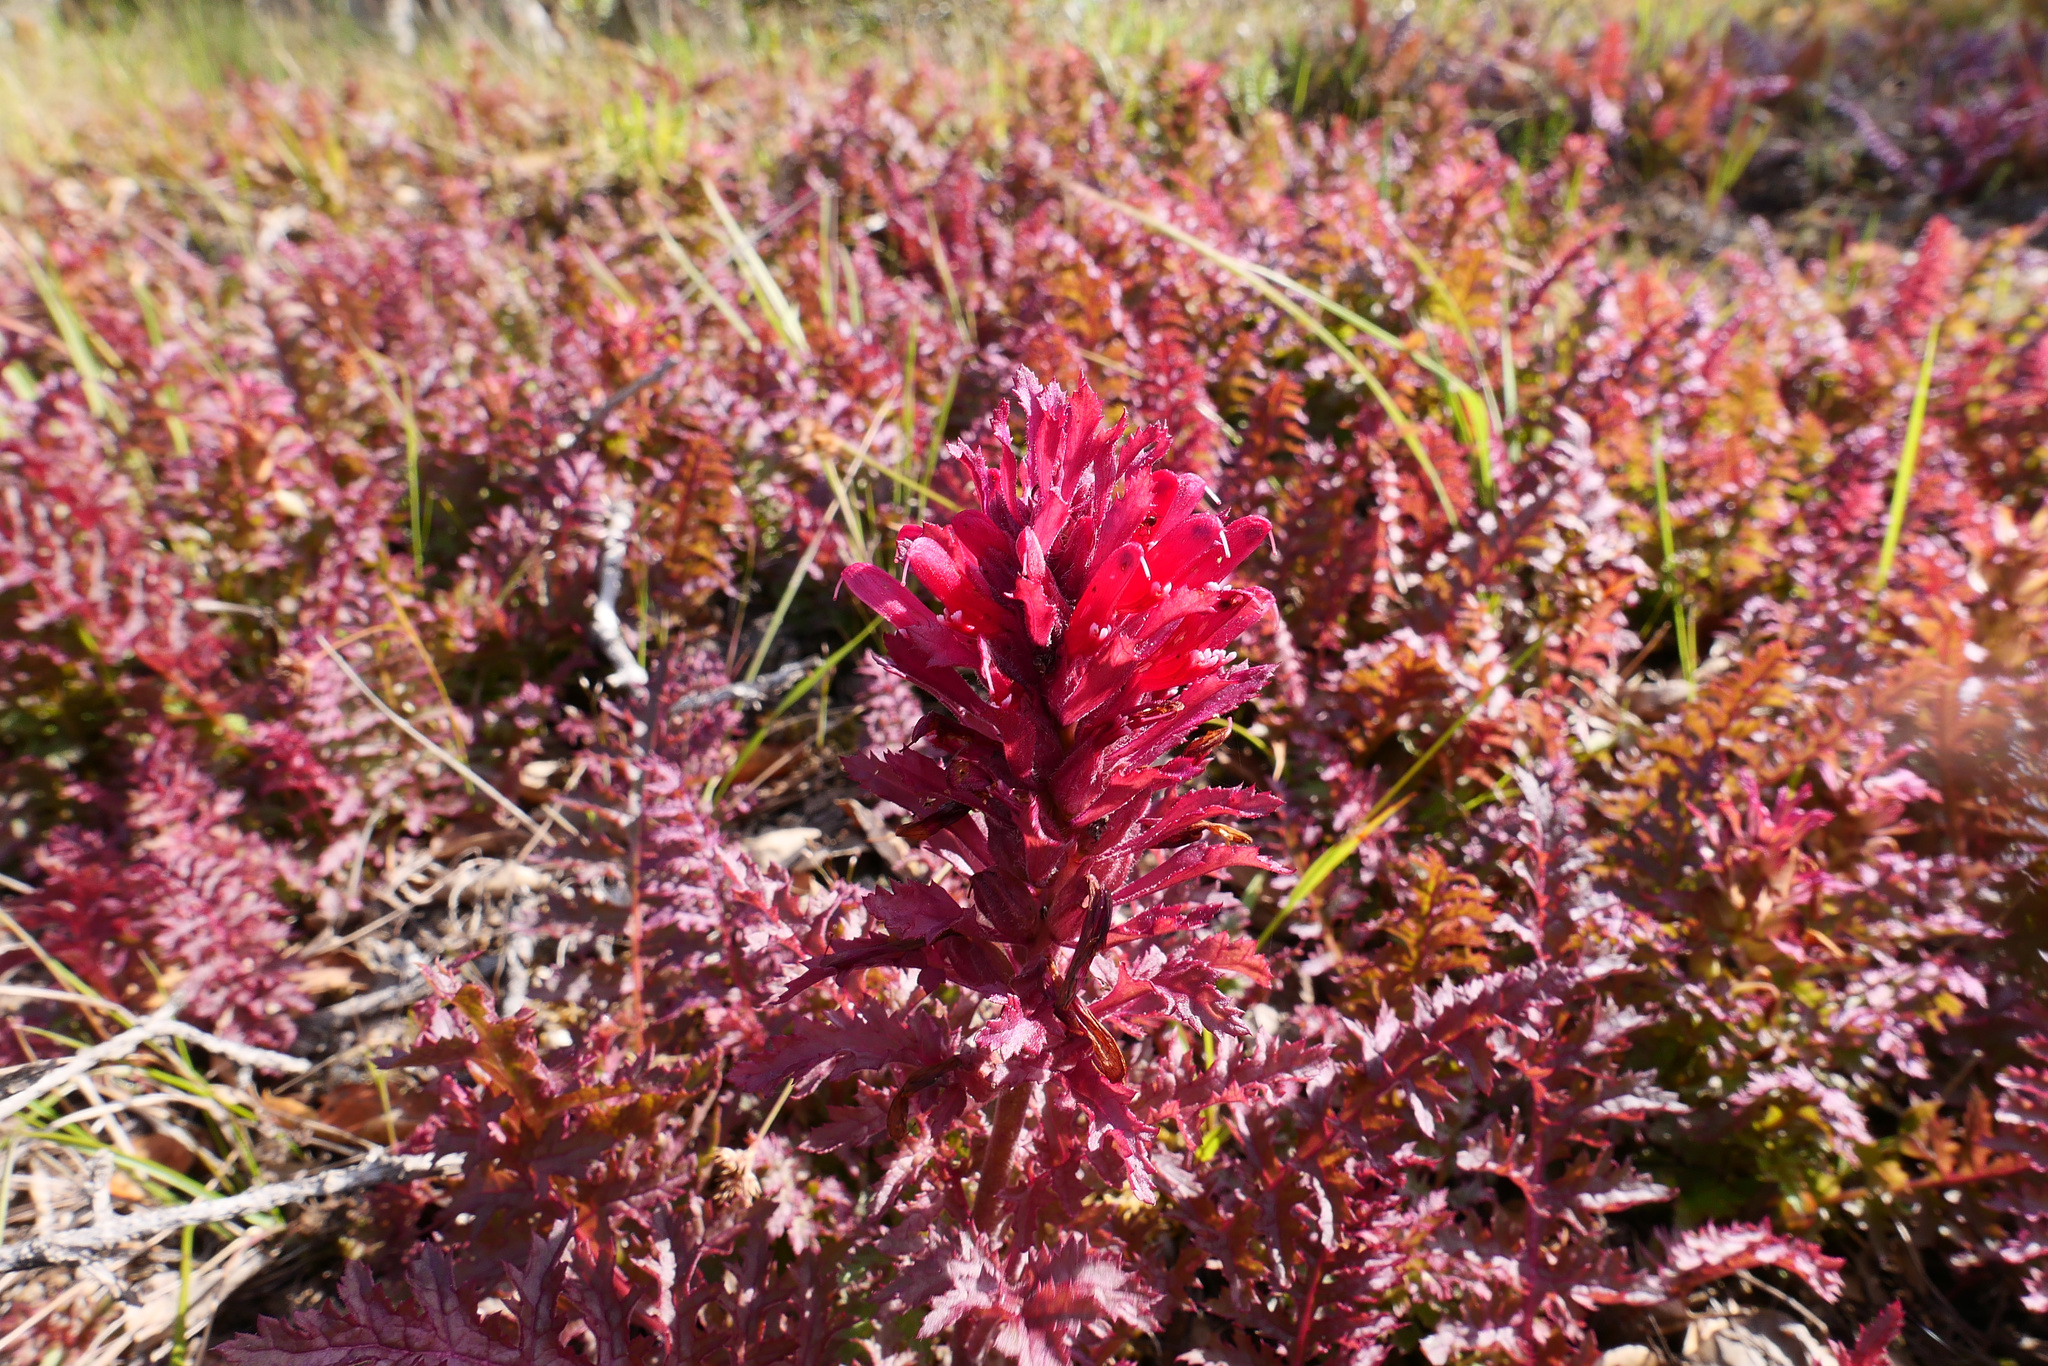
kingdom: Plantae
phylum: Tracheophyta
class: Magnoliopsida
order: Lamiales
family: Orobanchaceae
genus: Pedicularis
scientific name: Pedicularis densiflora
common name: Indian warrior
